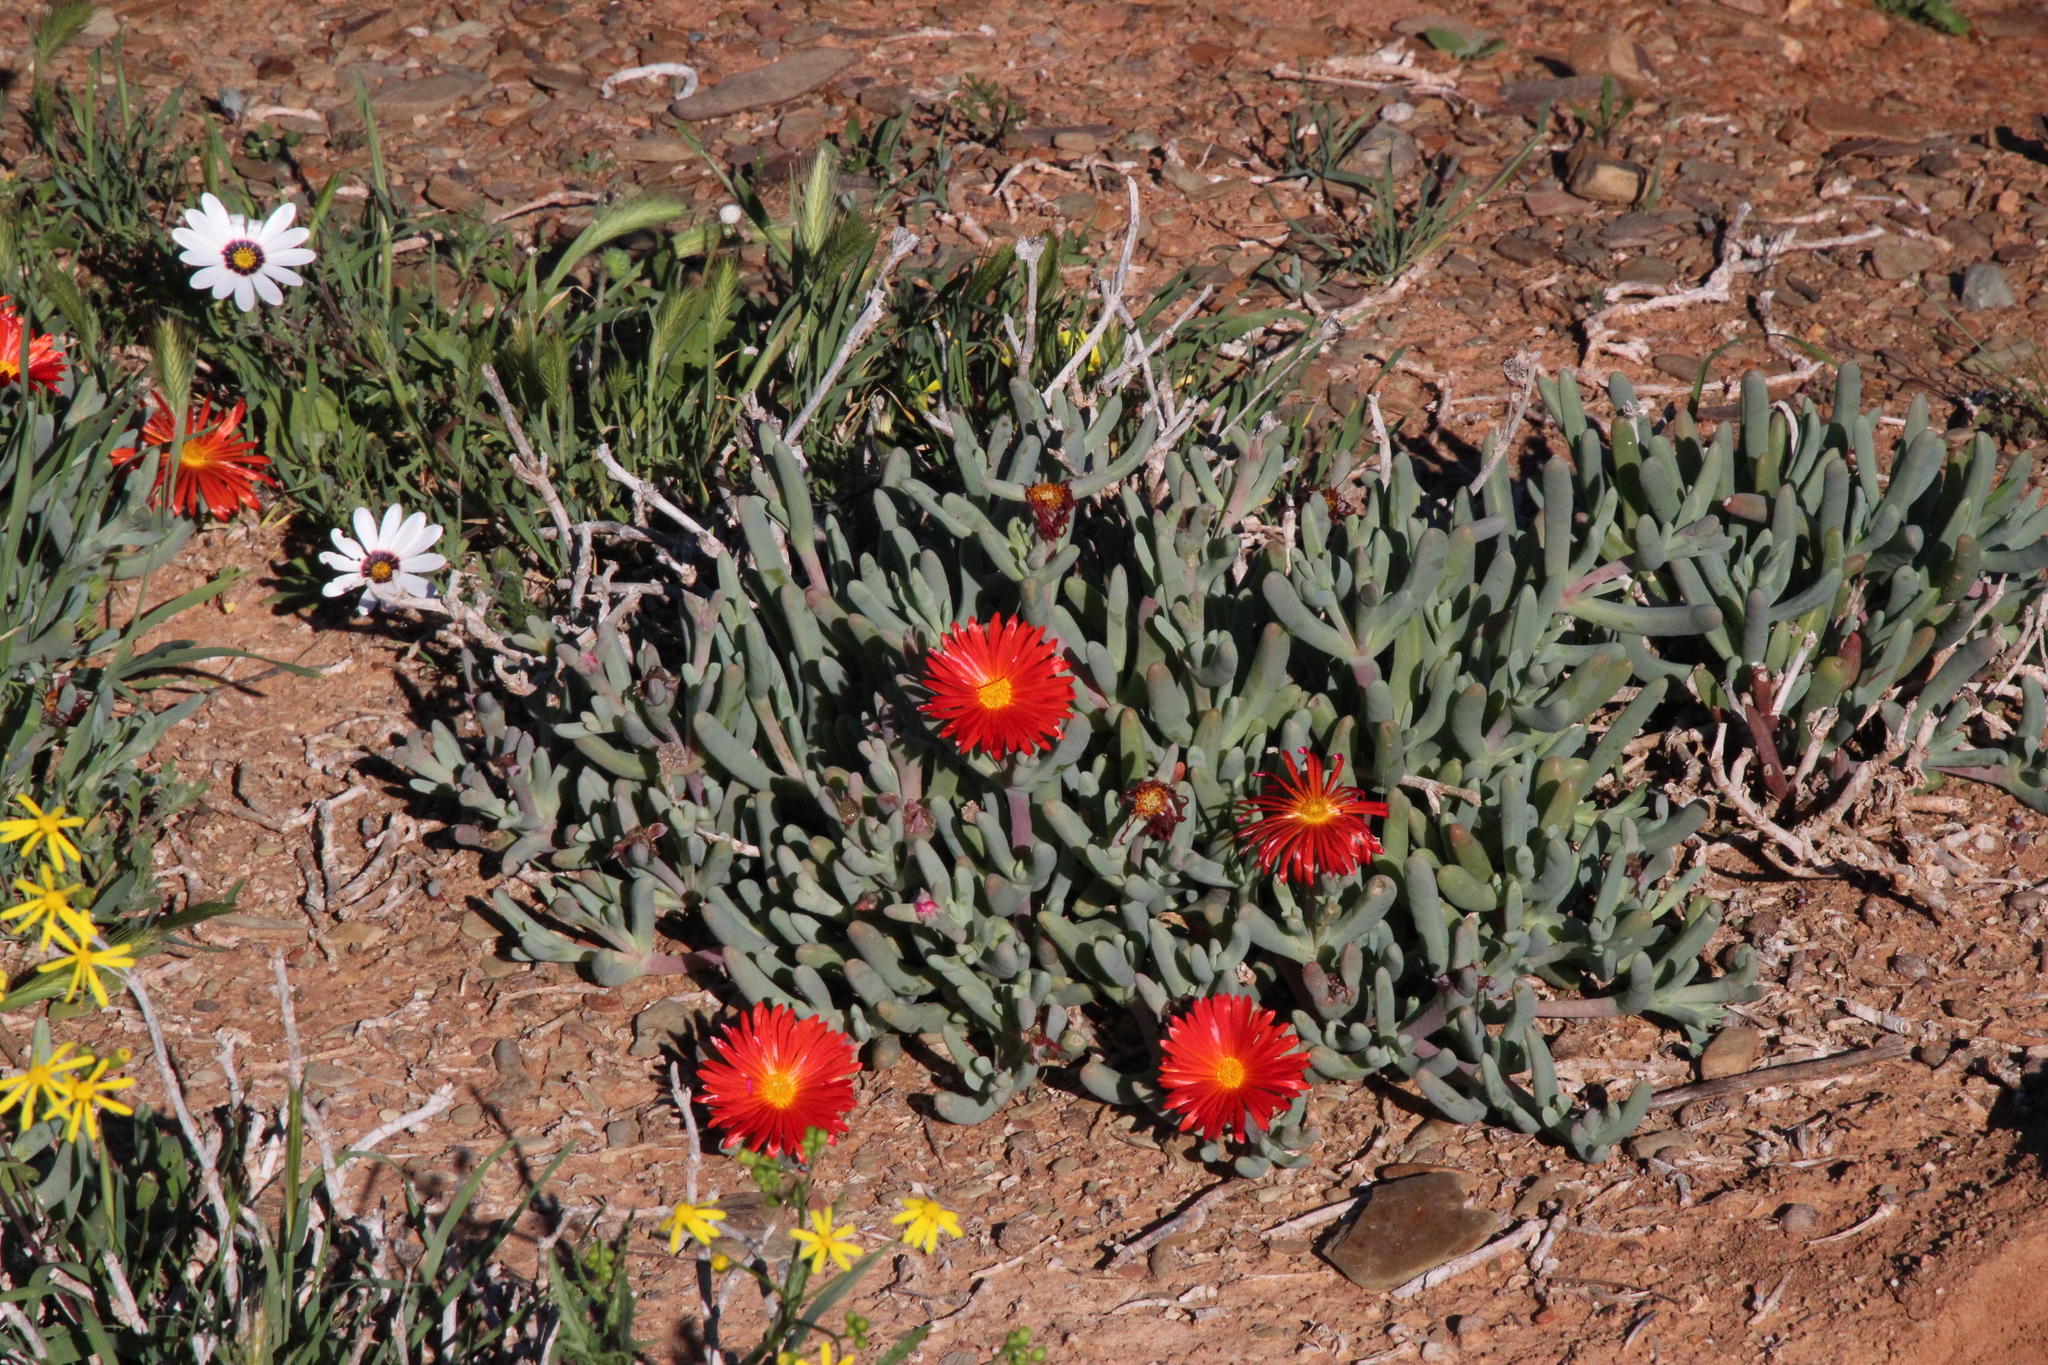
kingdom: Plantae
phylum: Tracheophyta
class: Magnoliopsida
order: Caryophyllales
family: Aizoaceae
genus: Malephora
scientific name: Malephora purpureocrocea
